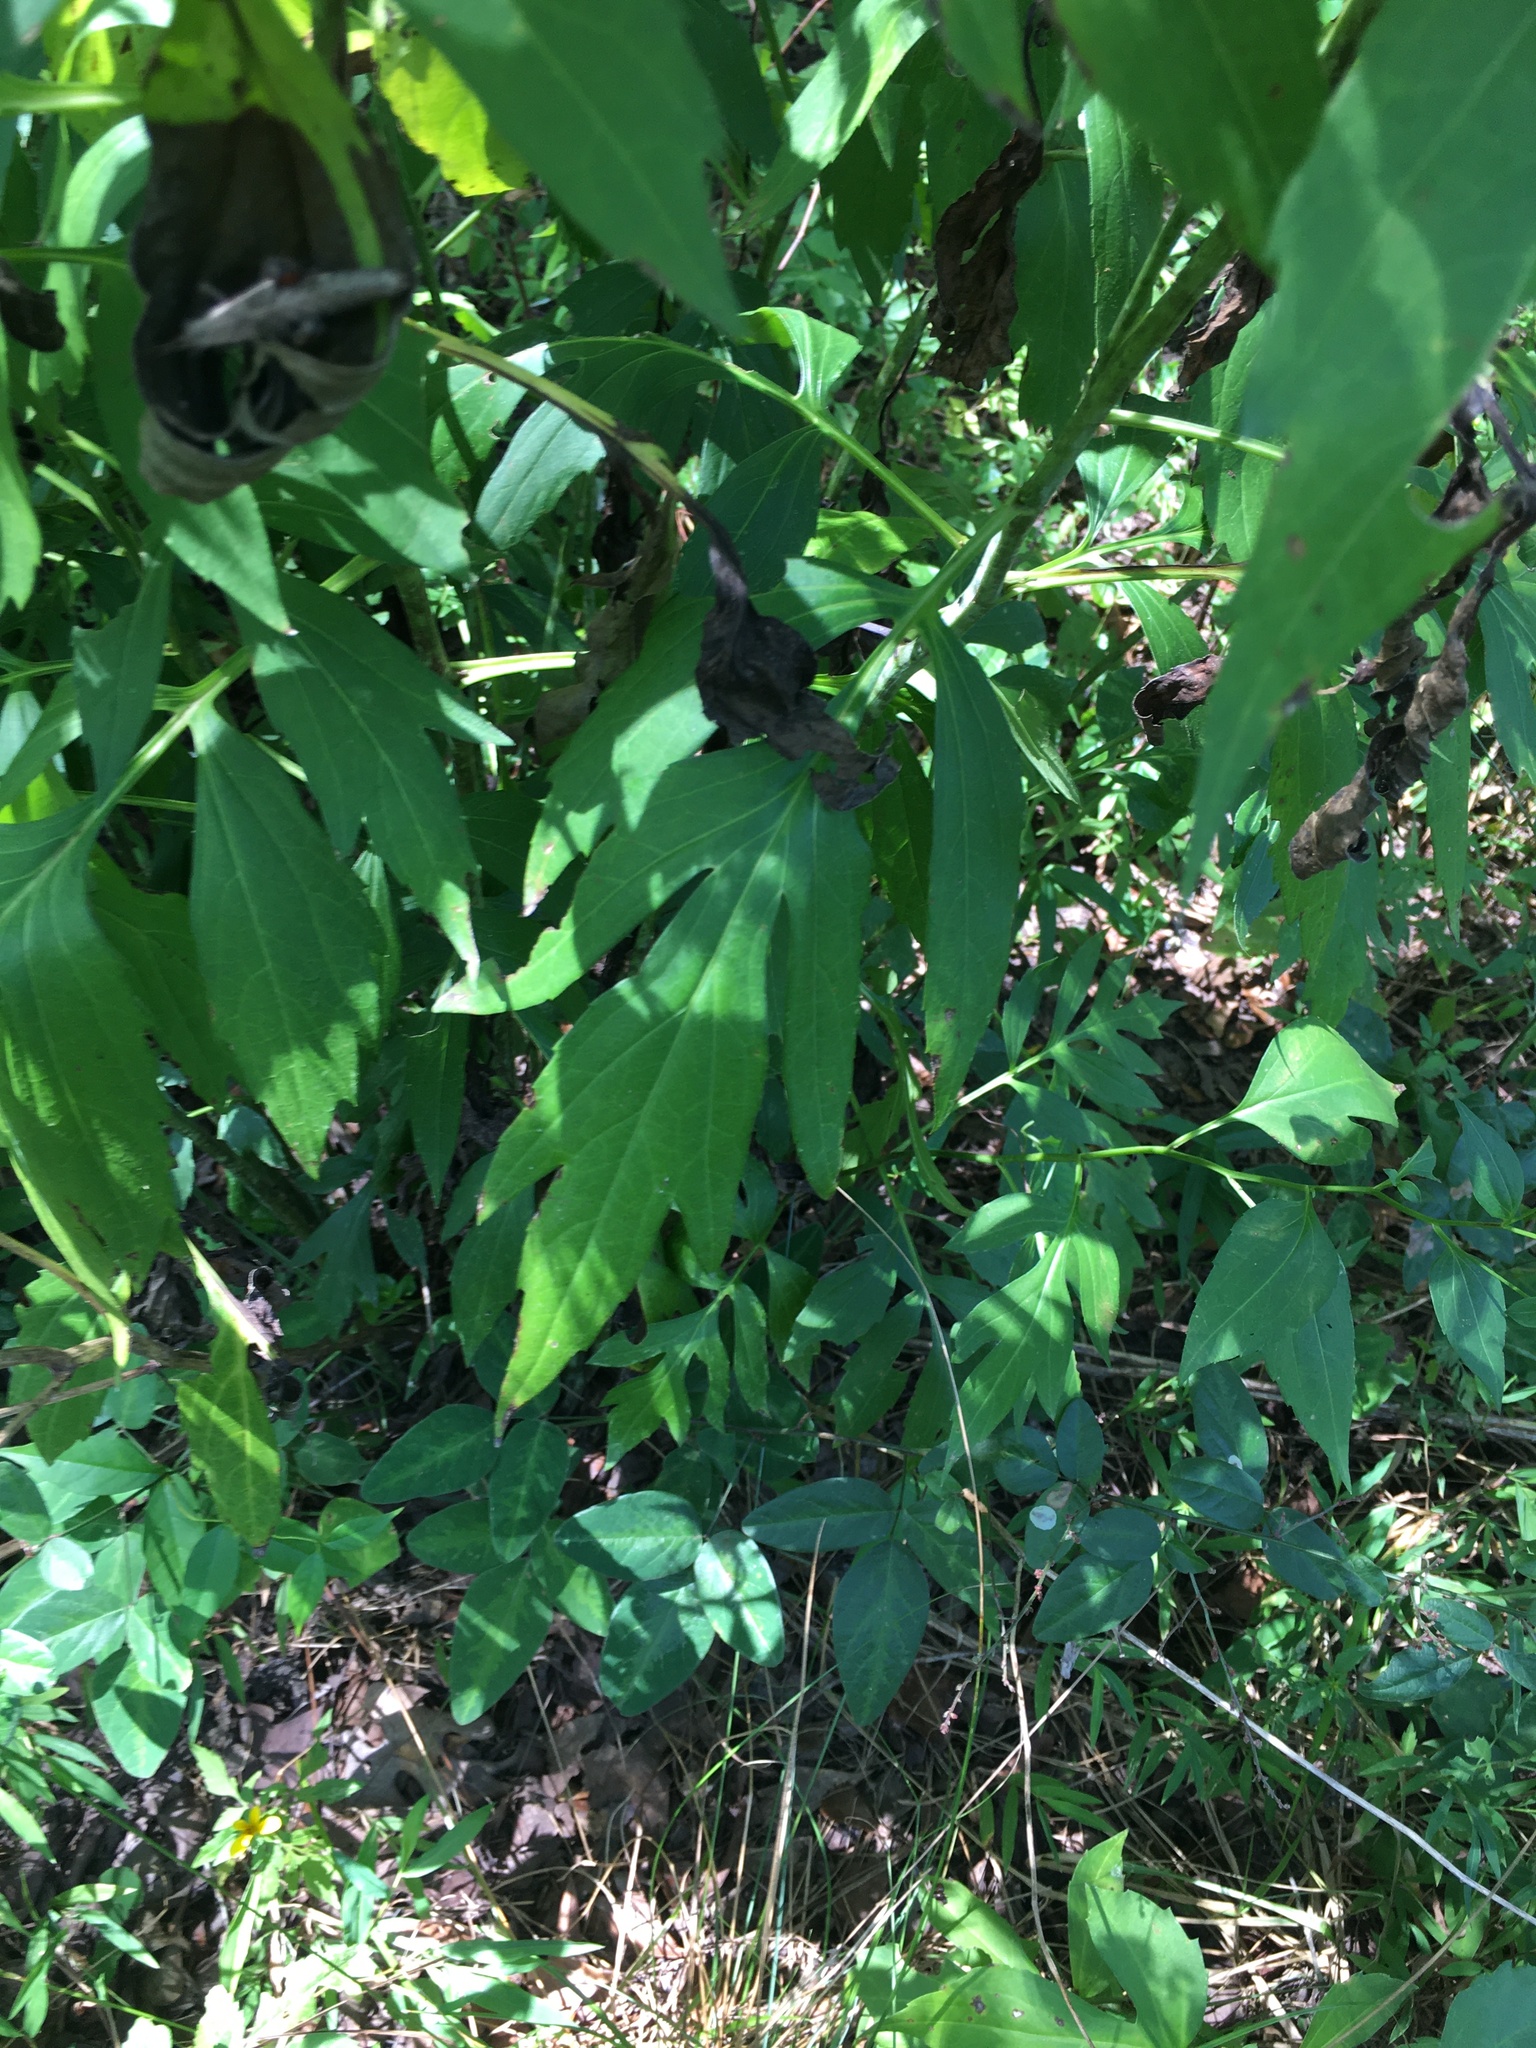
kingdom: Plantae
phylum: Tracheophyta
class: Magnoliopsida
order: Asterales
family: Asteraceae
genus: Rudbeckia
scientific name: Rudbeckia laciniata
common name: Coneflower
